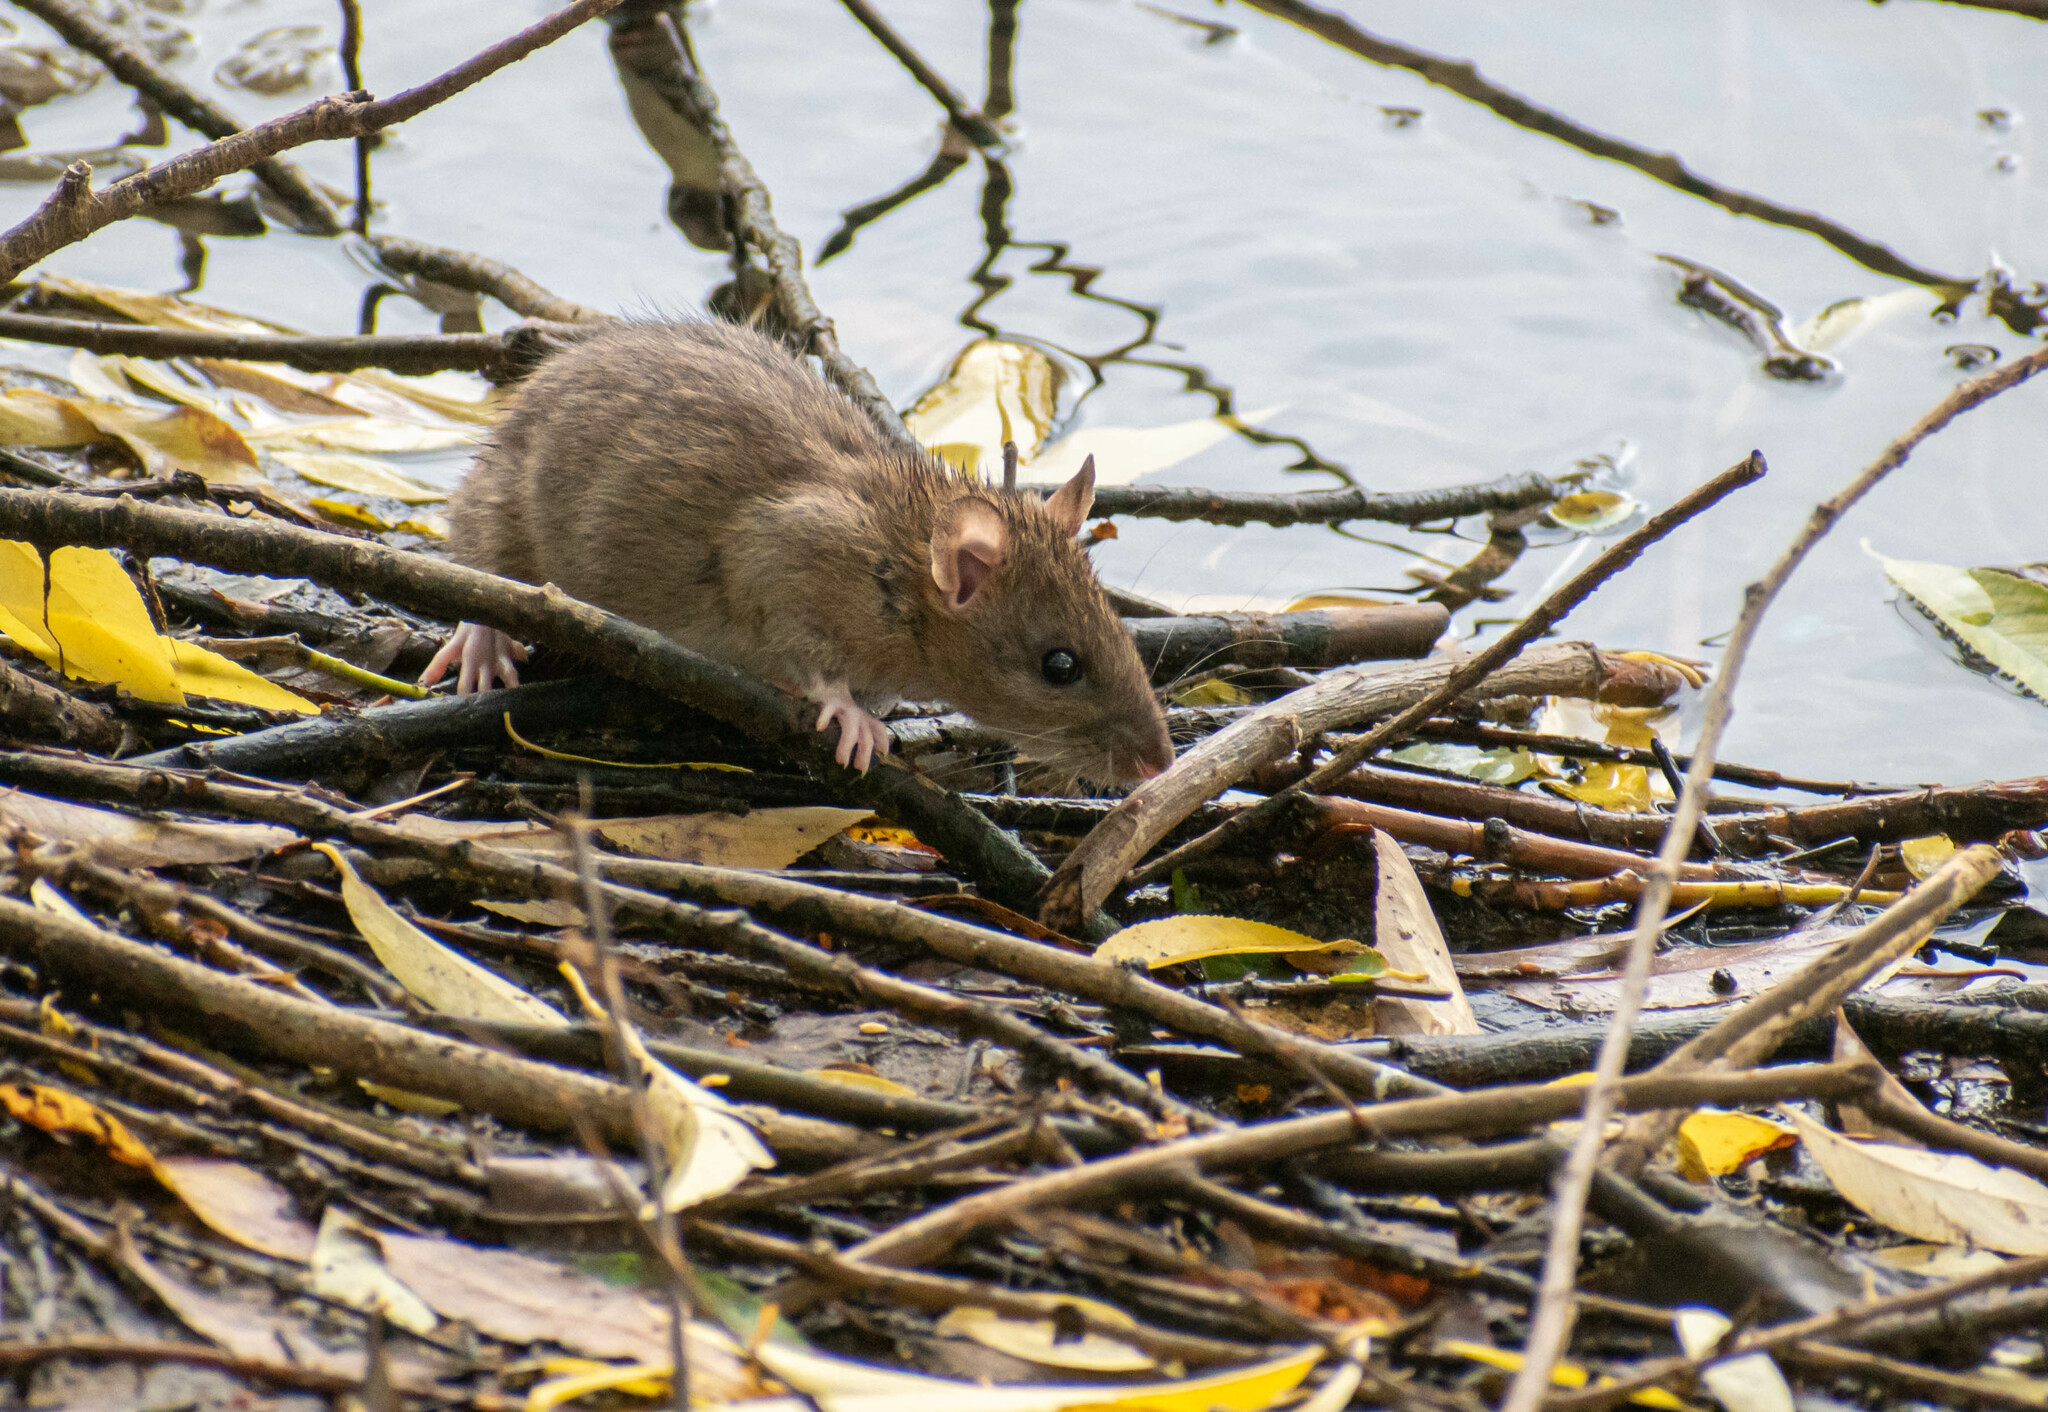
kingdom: Animalia
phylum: Chordata
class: Mammalia
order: Rodentia
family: Muridae
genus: Rattus
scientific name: Rattus norvegicus
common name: Brown rat
